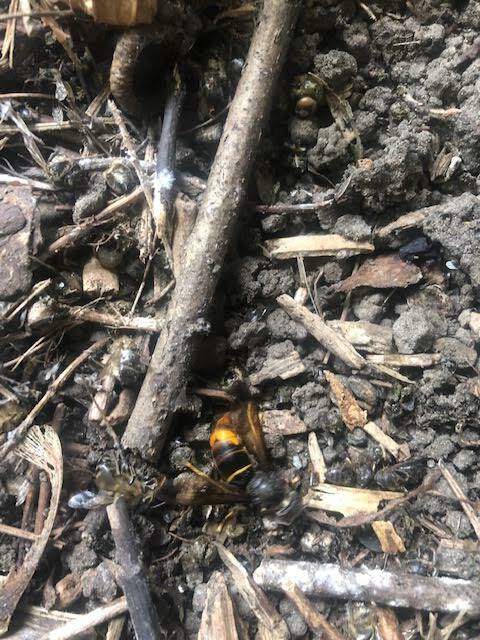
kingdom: Animalia
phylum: Arthropoda
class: Insecta
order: Hymenoptera
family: Vespidae
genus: Vespa
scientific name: Vespa velutina
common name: Asian hornet
